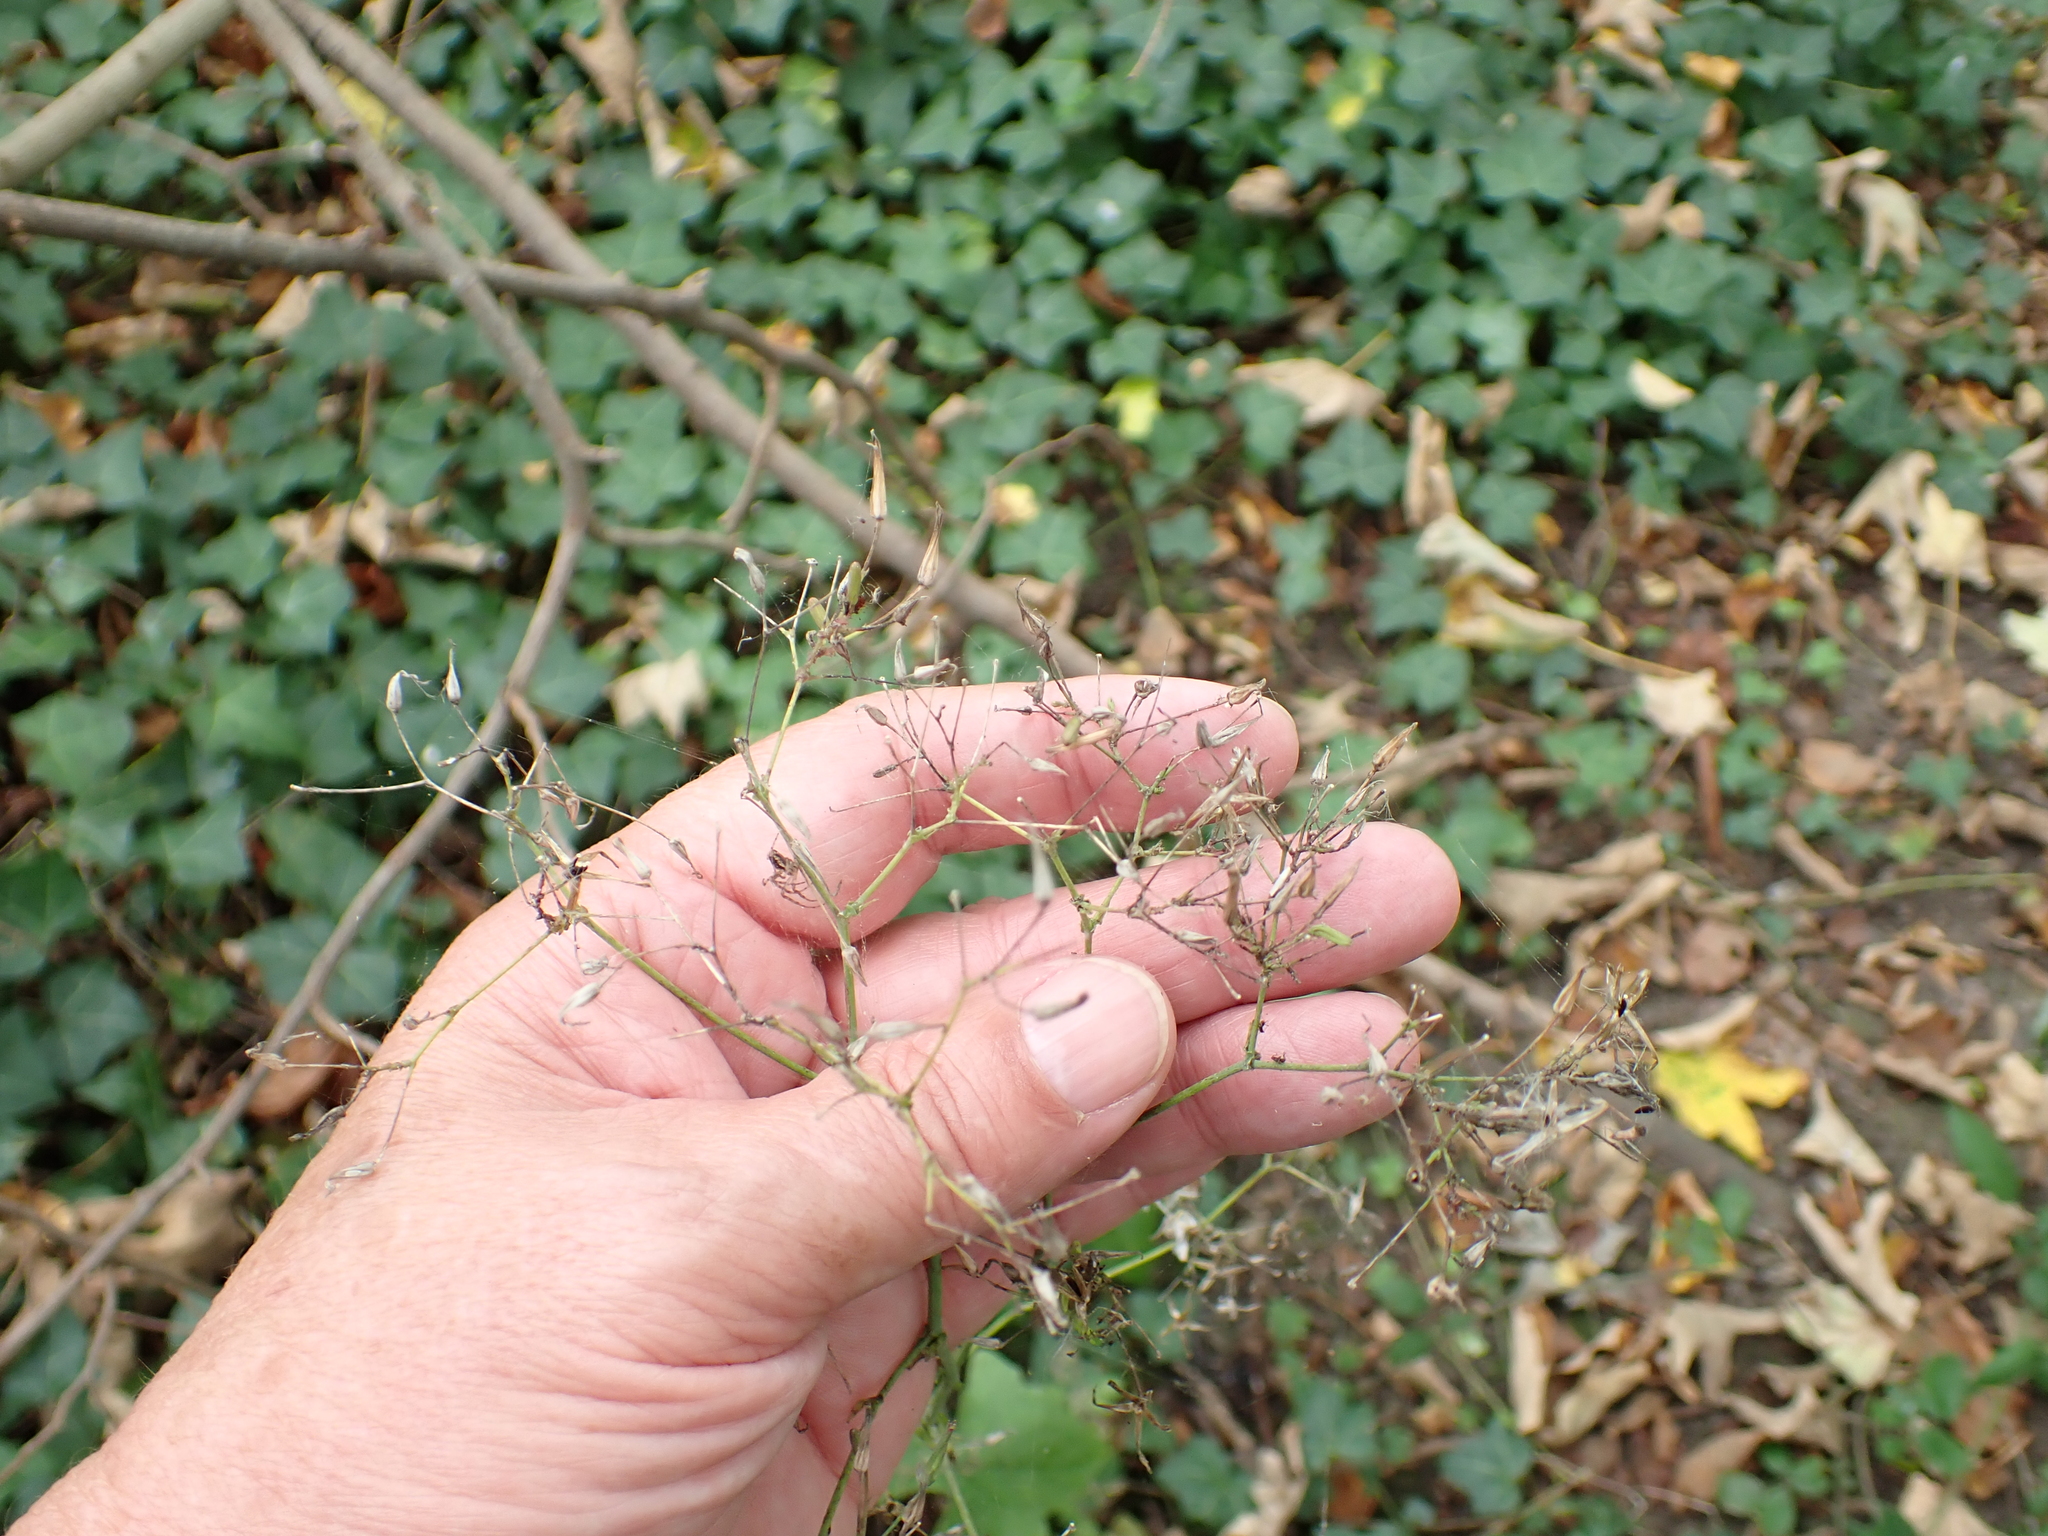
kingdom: Plantae
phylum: Tracheophyta
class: Magnoliopsida
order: Asterales
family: Asteraceae
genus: Mycelis
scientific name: Mycelis muralis
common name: Wall lettuce
